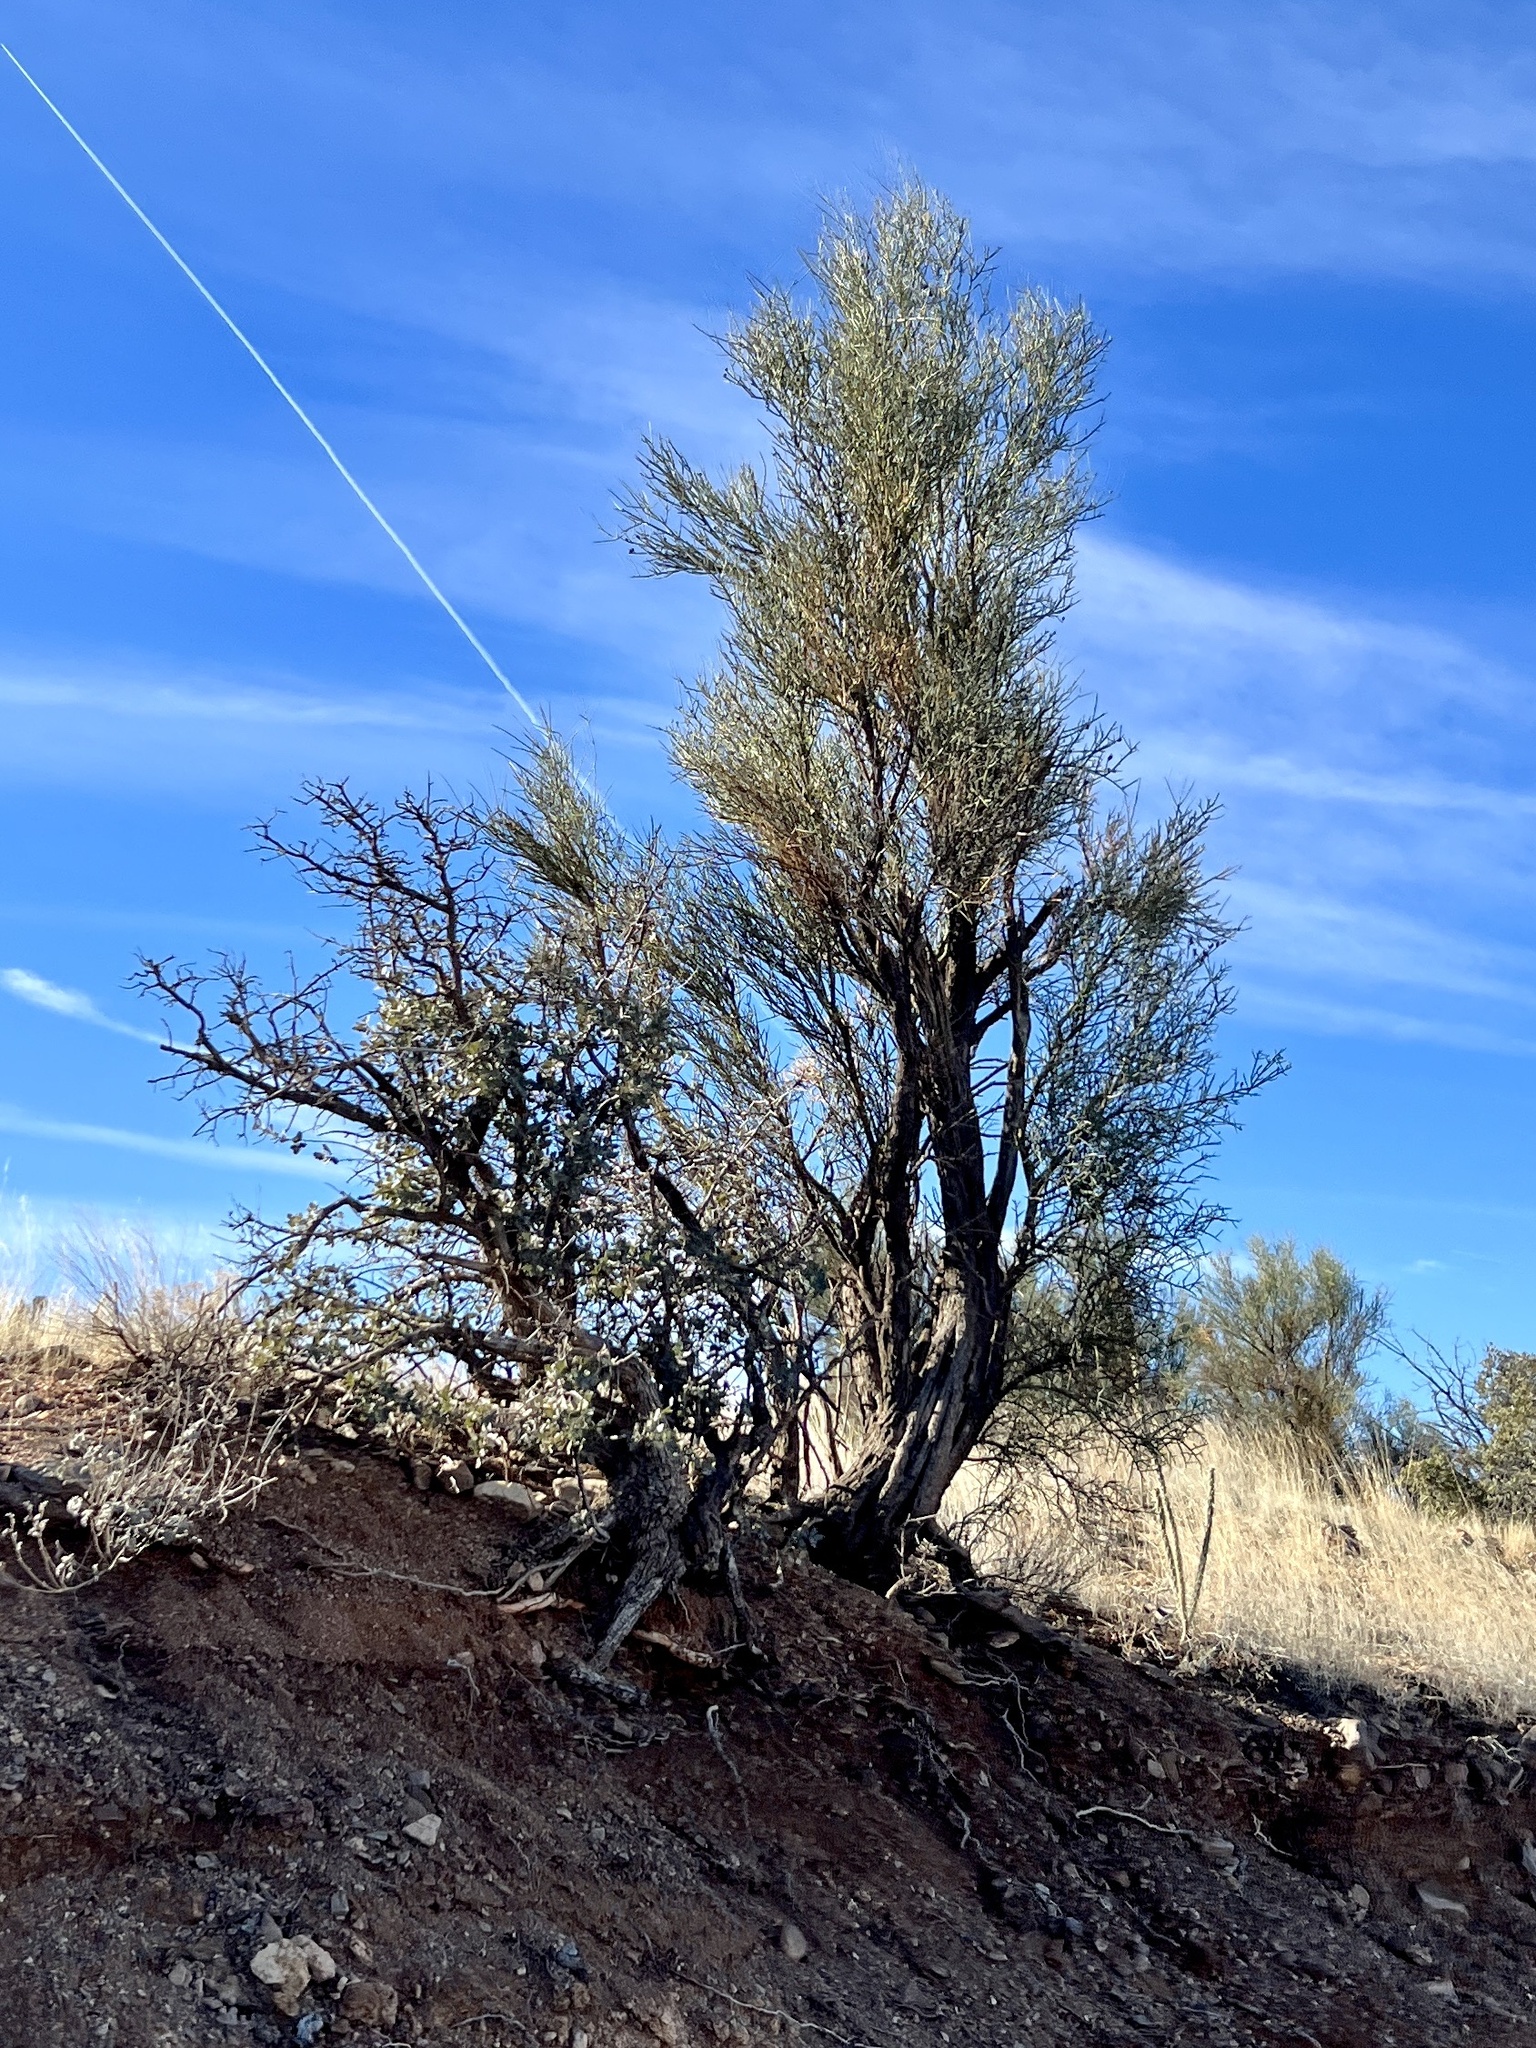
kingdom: Plantae
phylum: Tracheophyta
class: Magnoliopsida
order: Celastrales
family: Celastraceae
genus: Canotia
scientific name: Canotia holacantha
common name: Crucifixion thorns
